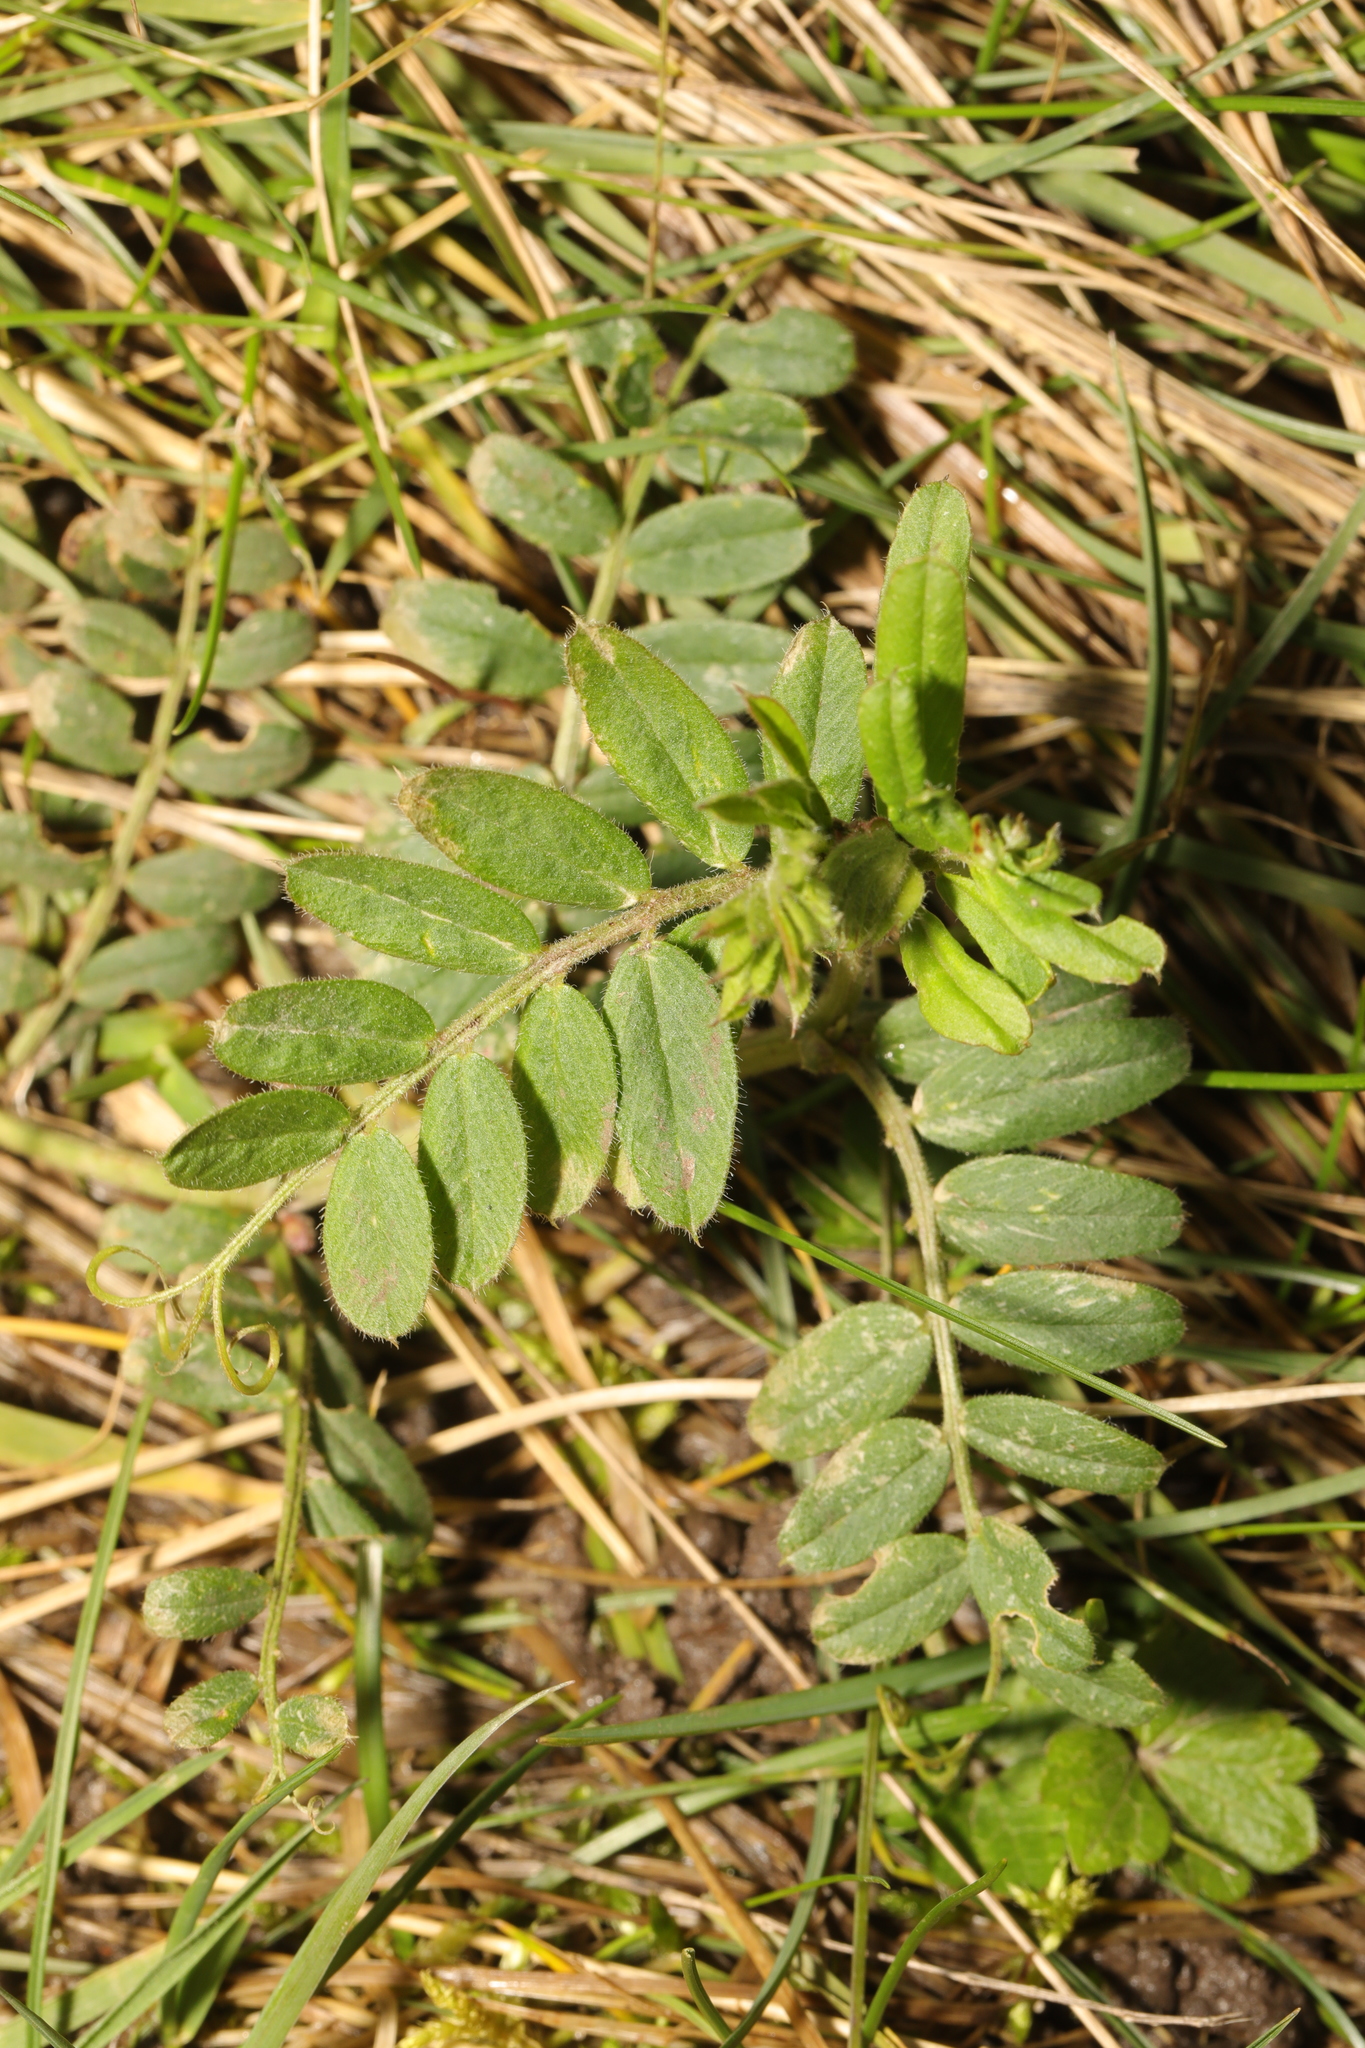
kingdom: Plantae
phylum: Tracheophyta
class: Magnoliopsida
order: Fabales
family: Fabaceae
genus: Vicia
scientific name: Vicia sepium
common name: Bush vetch
